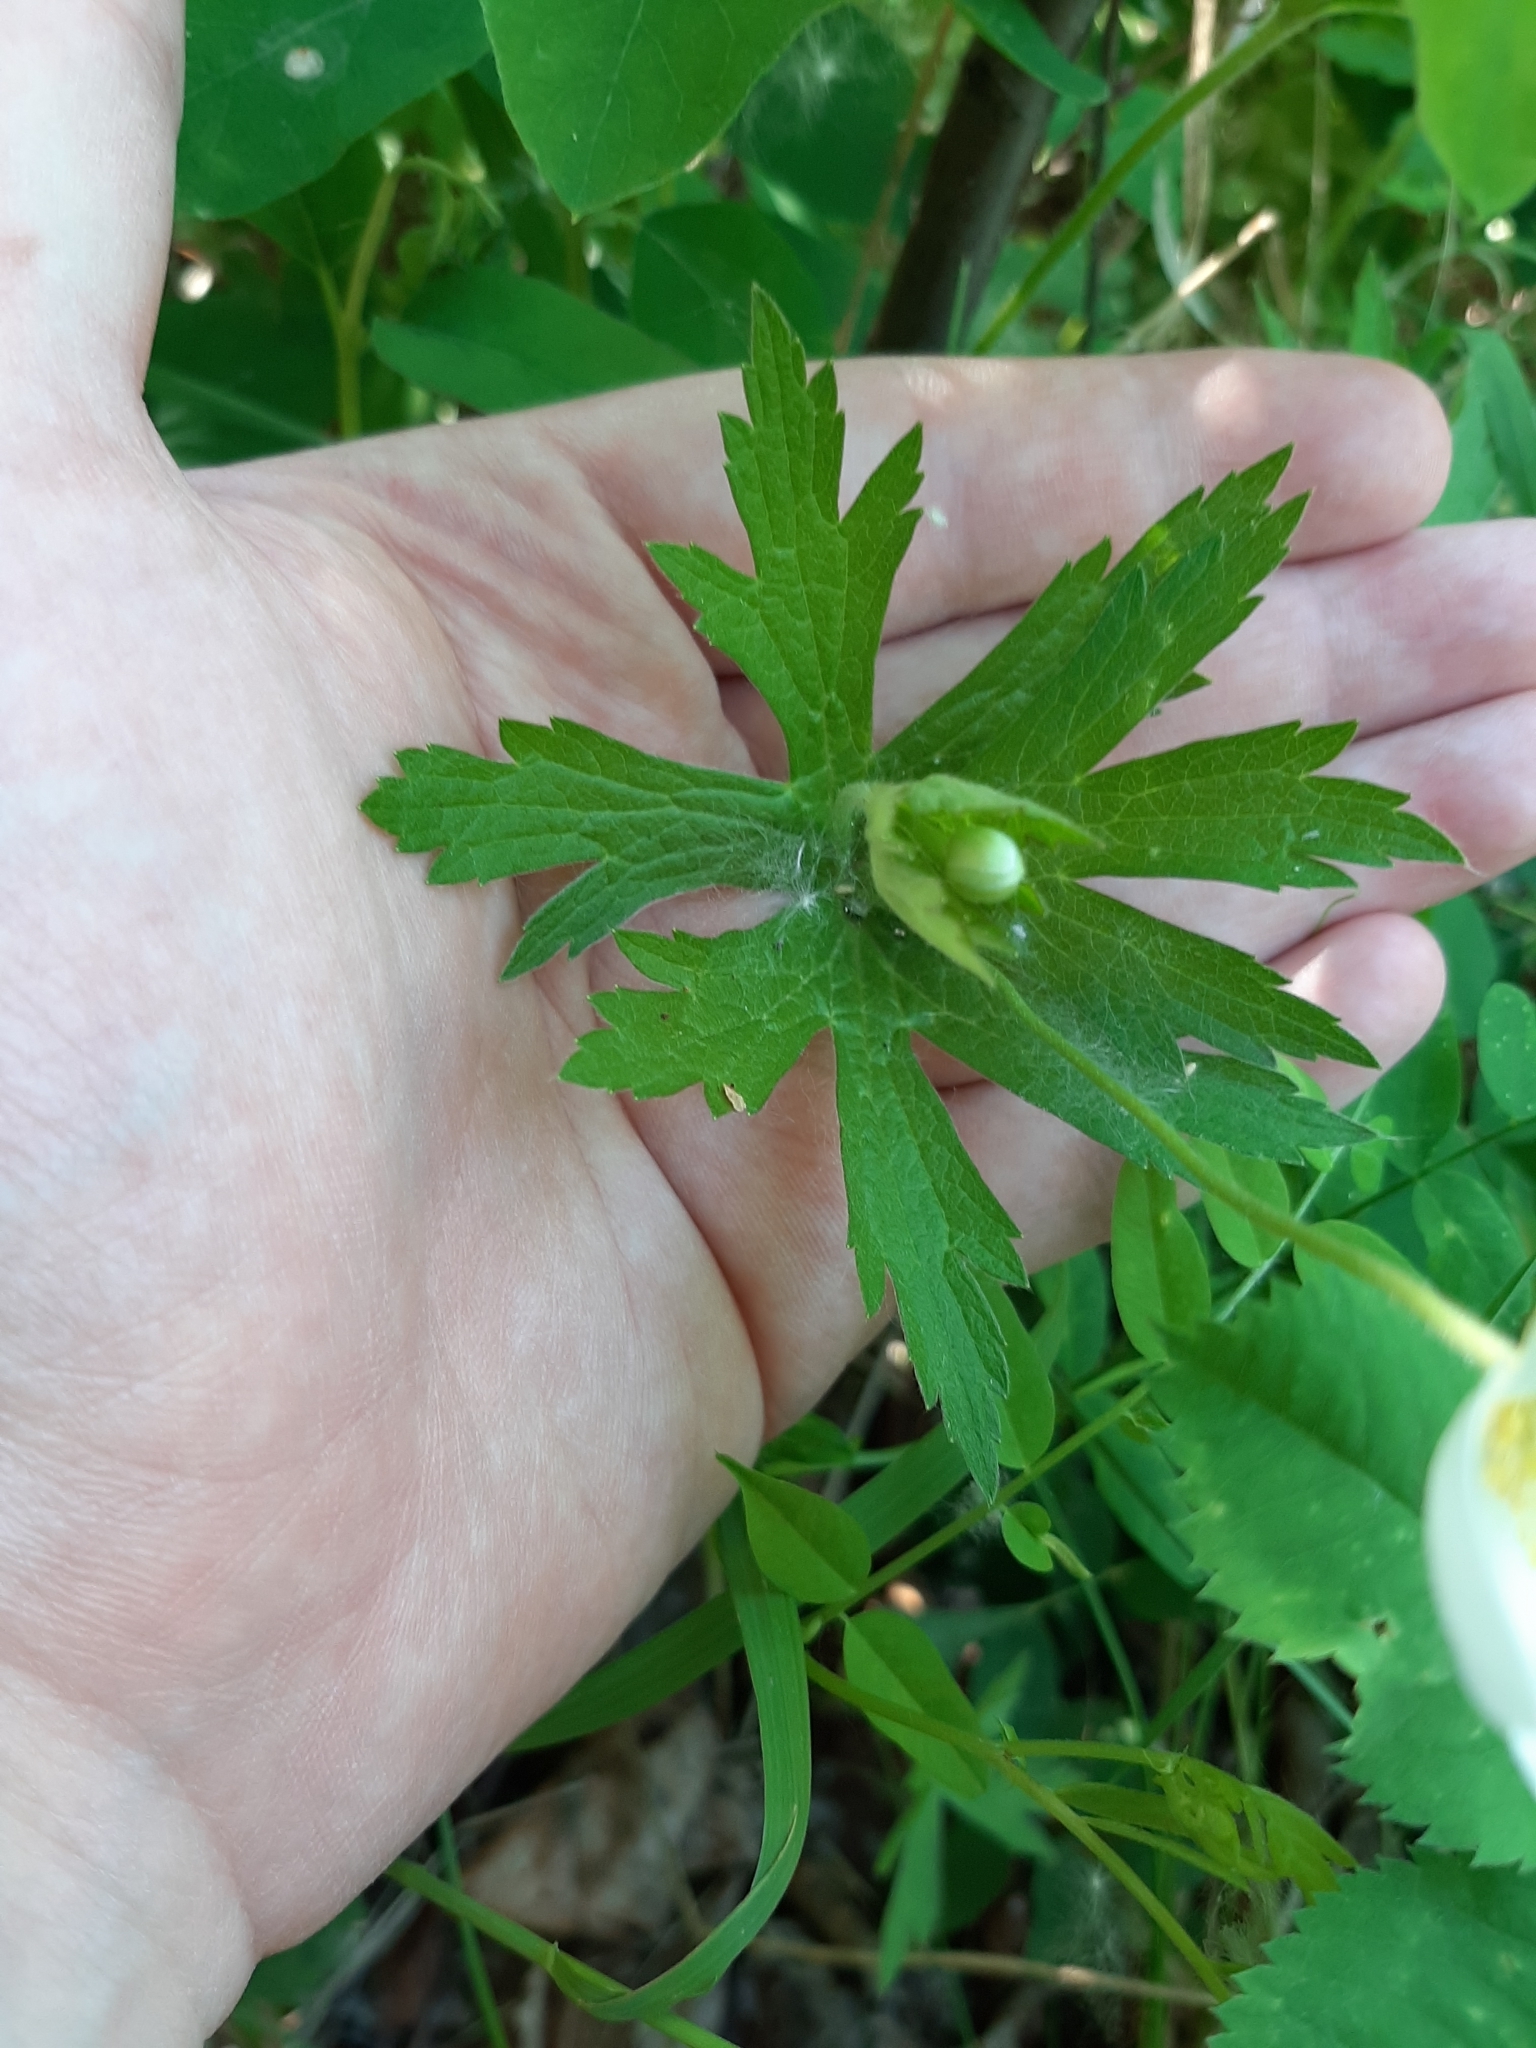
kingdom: Plantae
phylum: Tracheophyta
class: Magnoliopsida
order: Ranunculales
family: Ranunculaceae
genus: Anemonastrum
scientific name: Anemonastrum canadense
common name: Canada anemone
